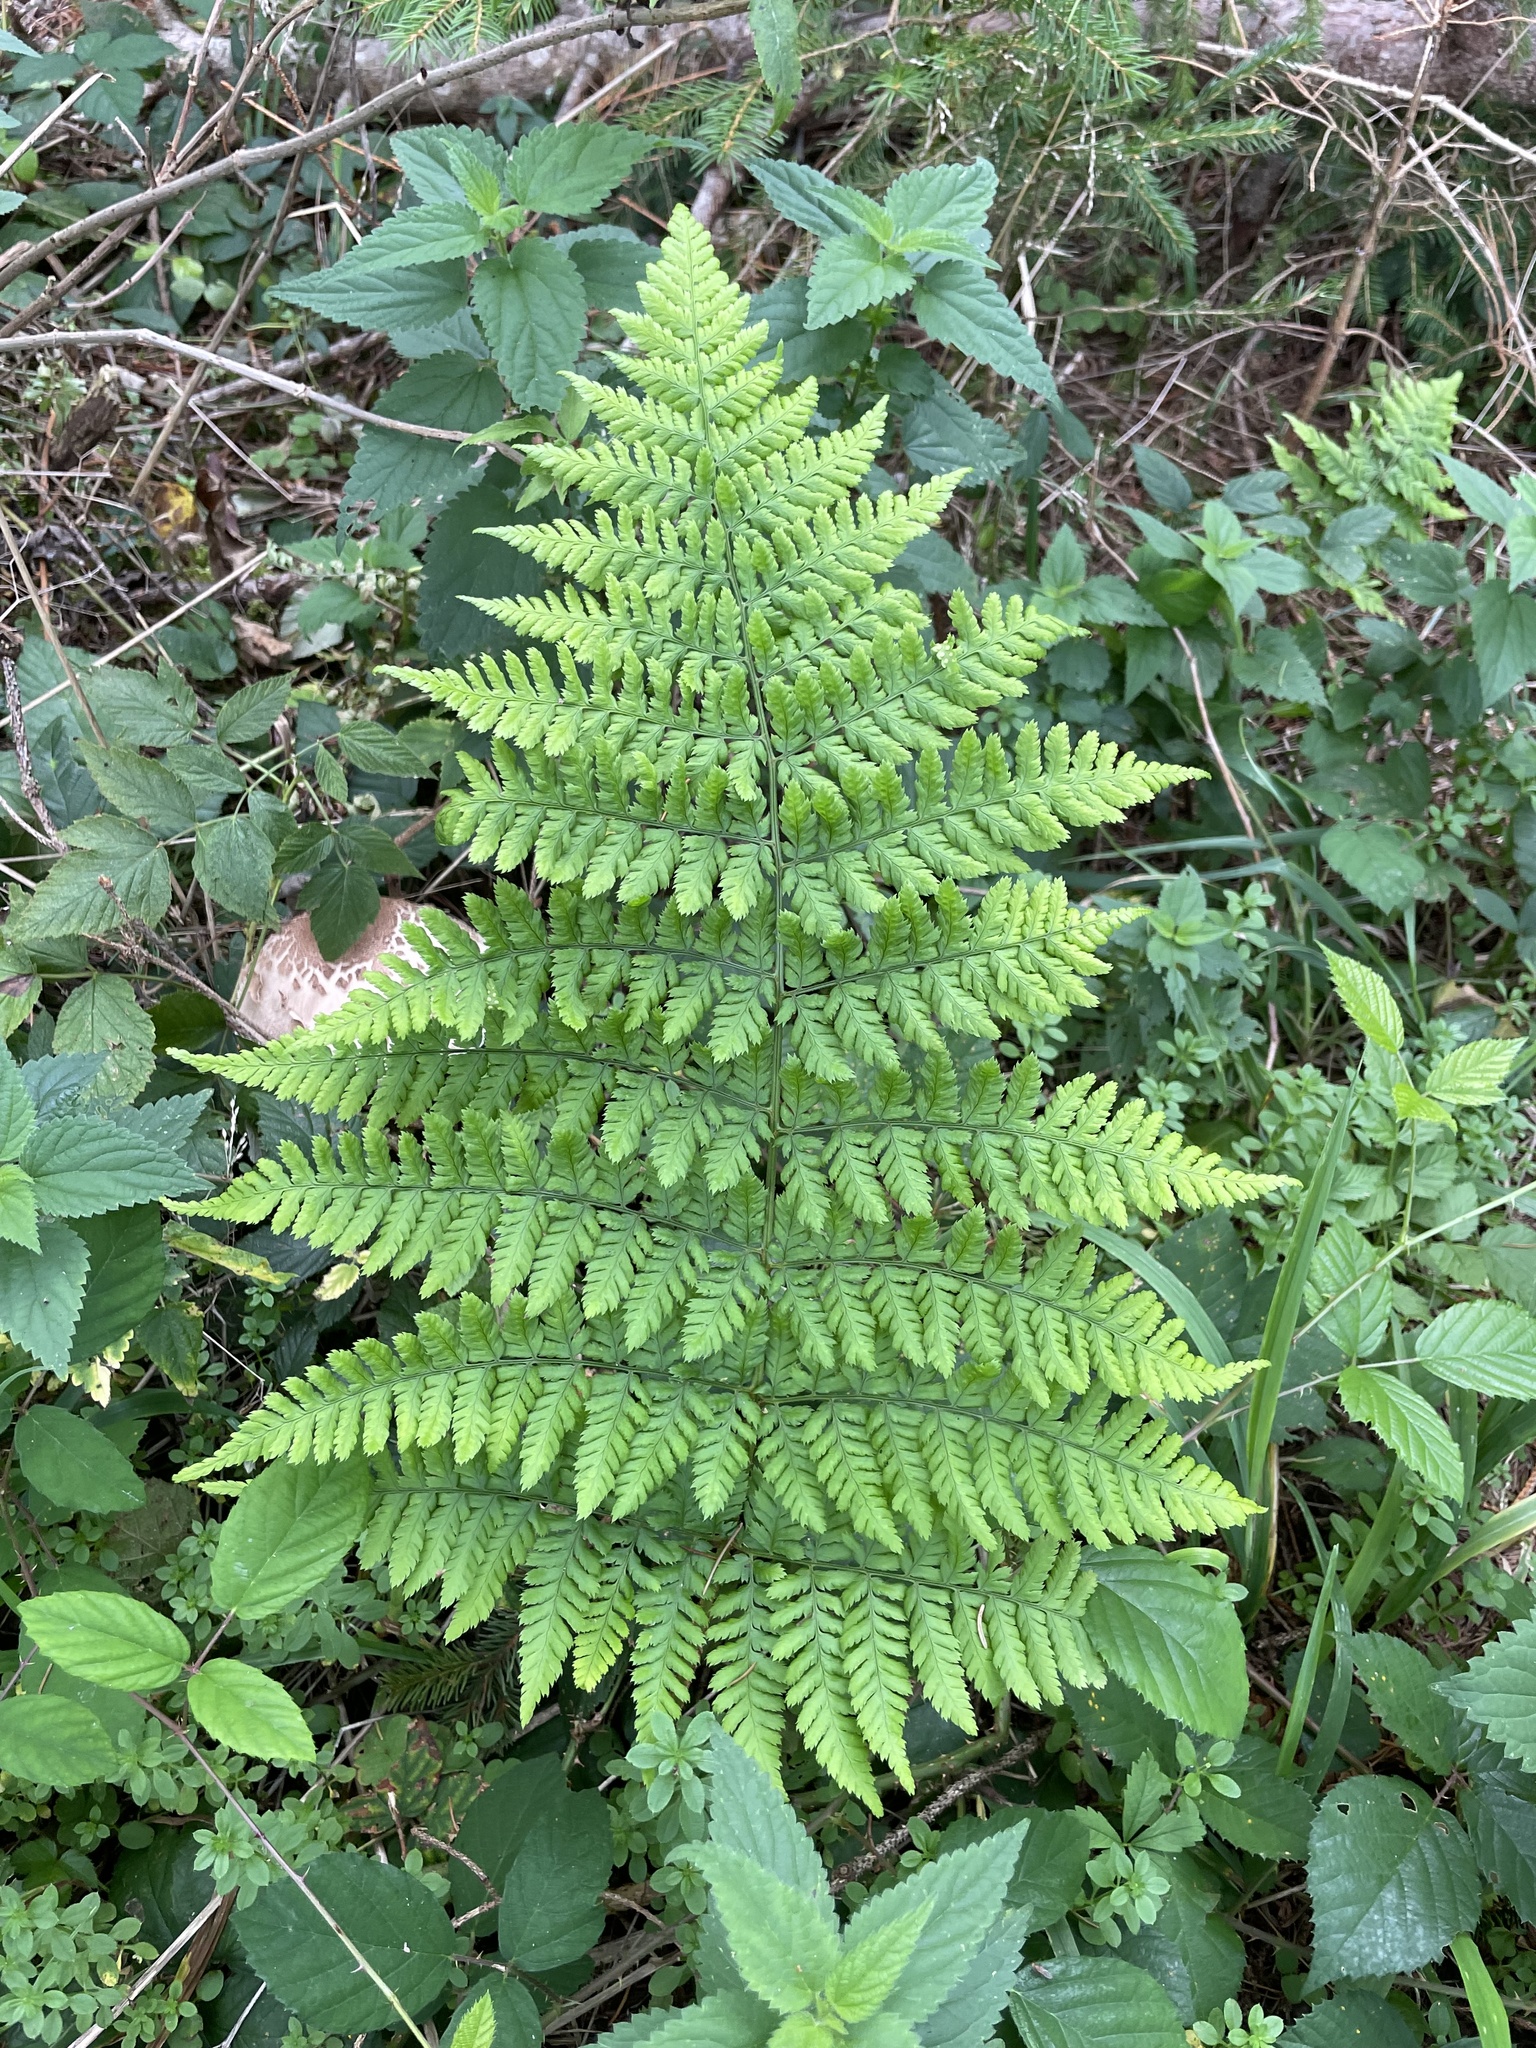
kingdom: Plantae
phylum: Tracheophyta
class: Polypodiopsida
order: Polypodiales
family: Dryopteridaceae
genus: Dryopteris
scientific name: Dryopteris dilatata
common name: Broad buckler-fern
